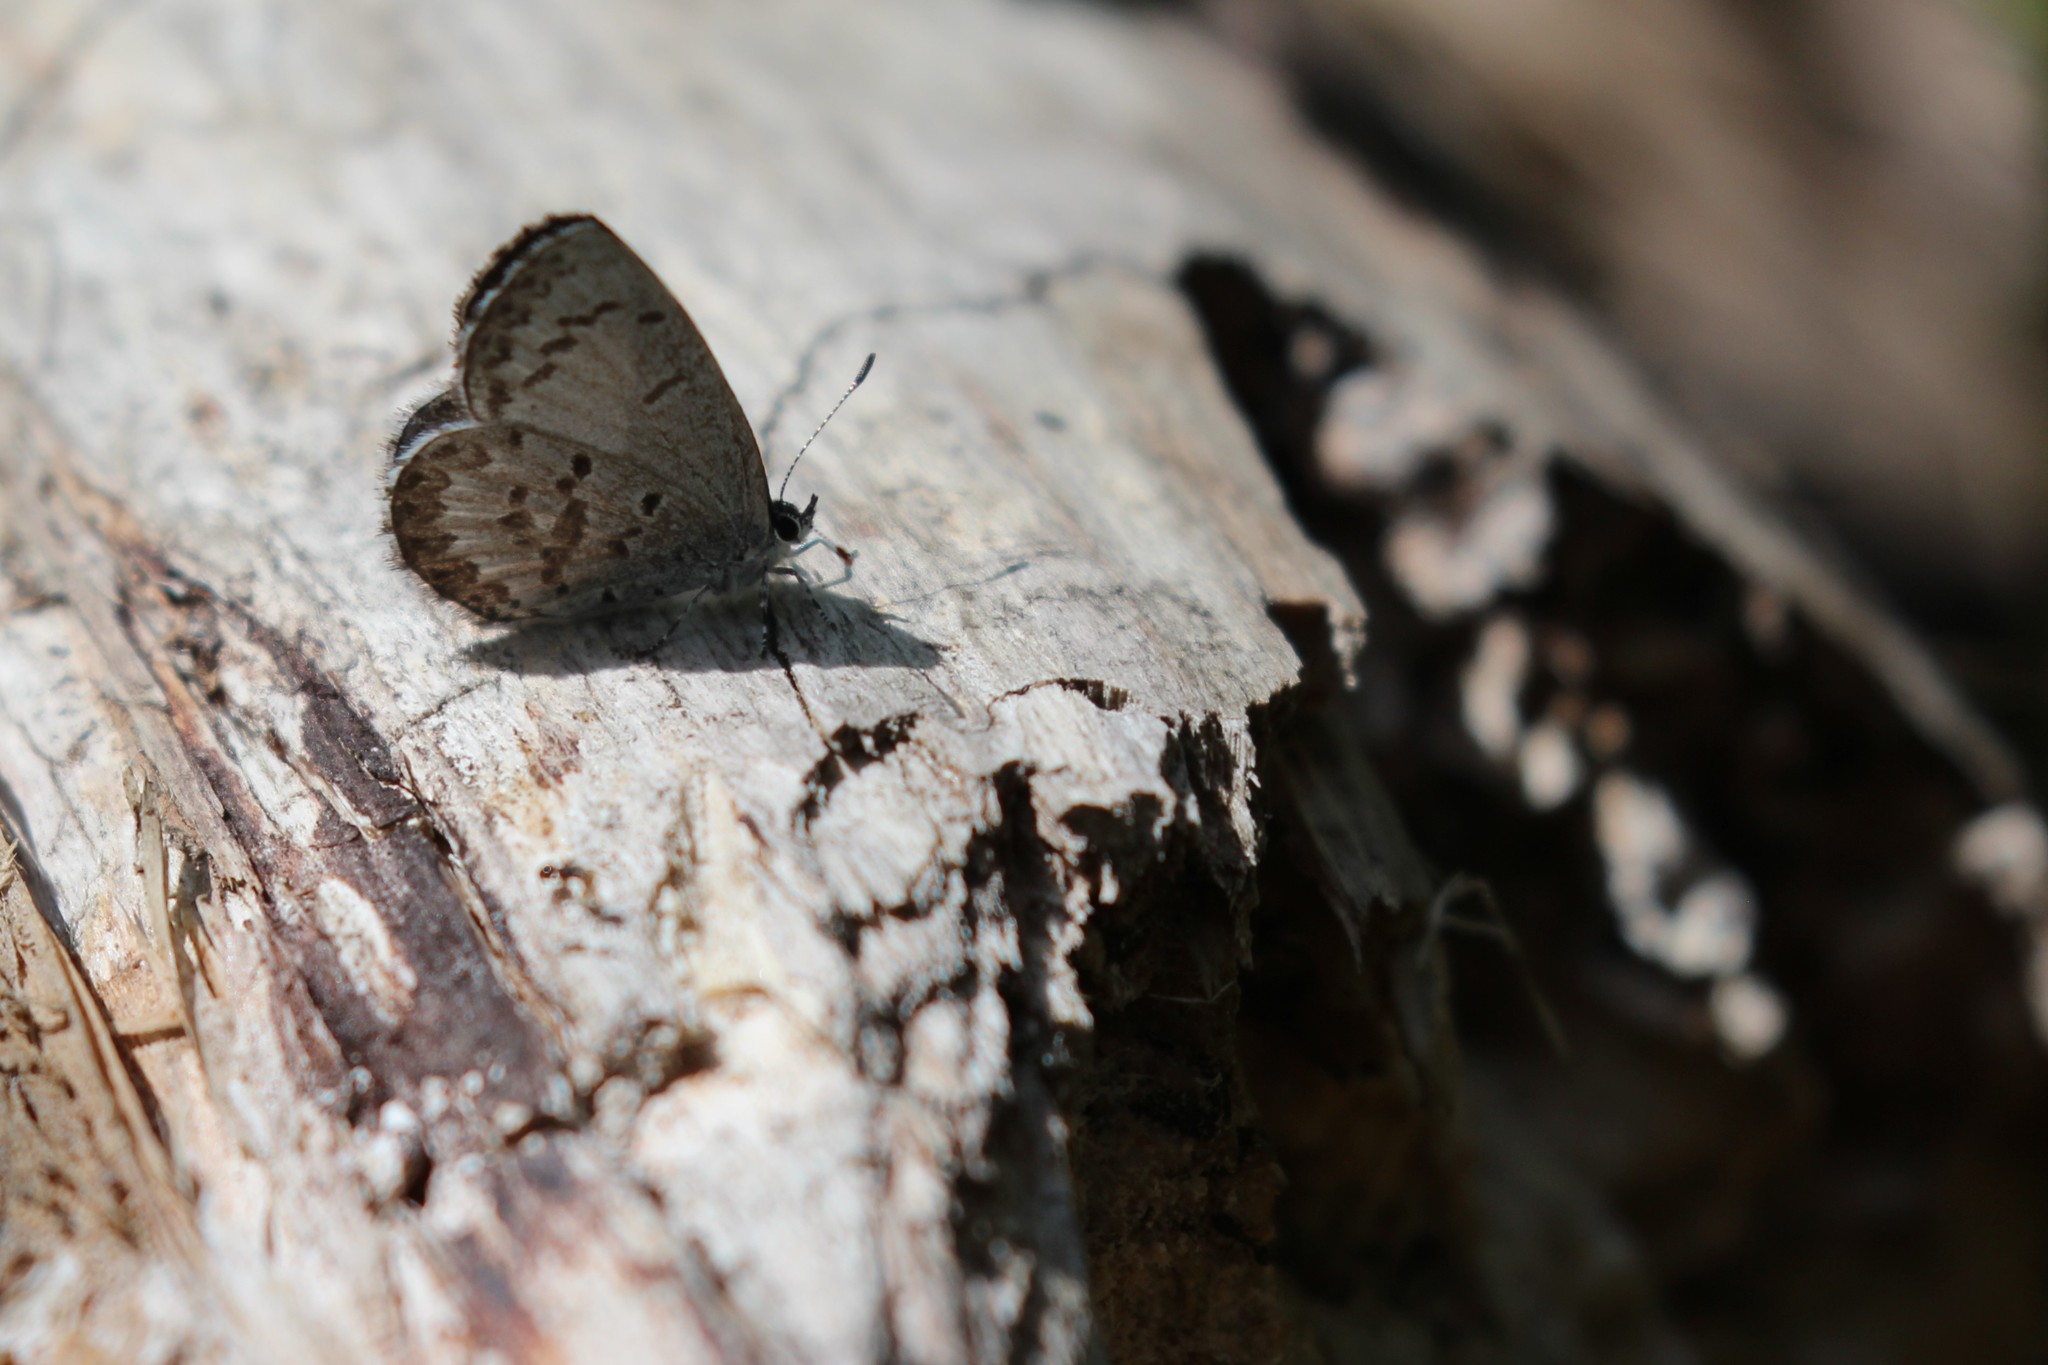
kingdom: Animalia
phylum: Arthropoda
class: Insecta
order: Lepidoptera
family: Lycaenidae
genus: Celastrina
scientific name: Celastrina lucia
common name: Lucia azure
